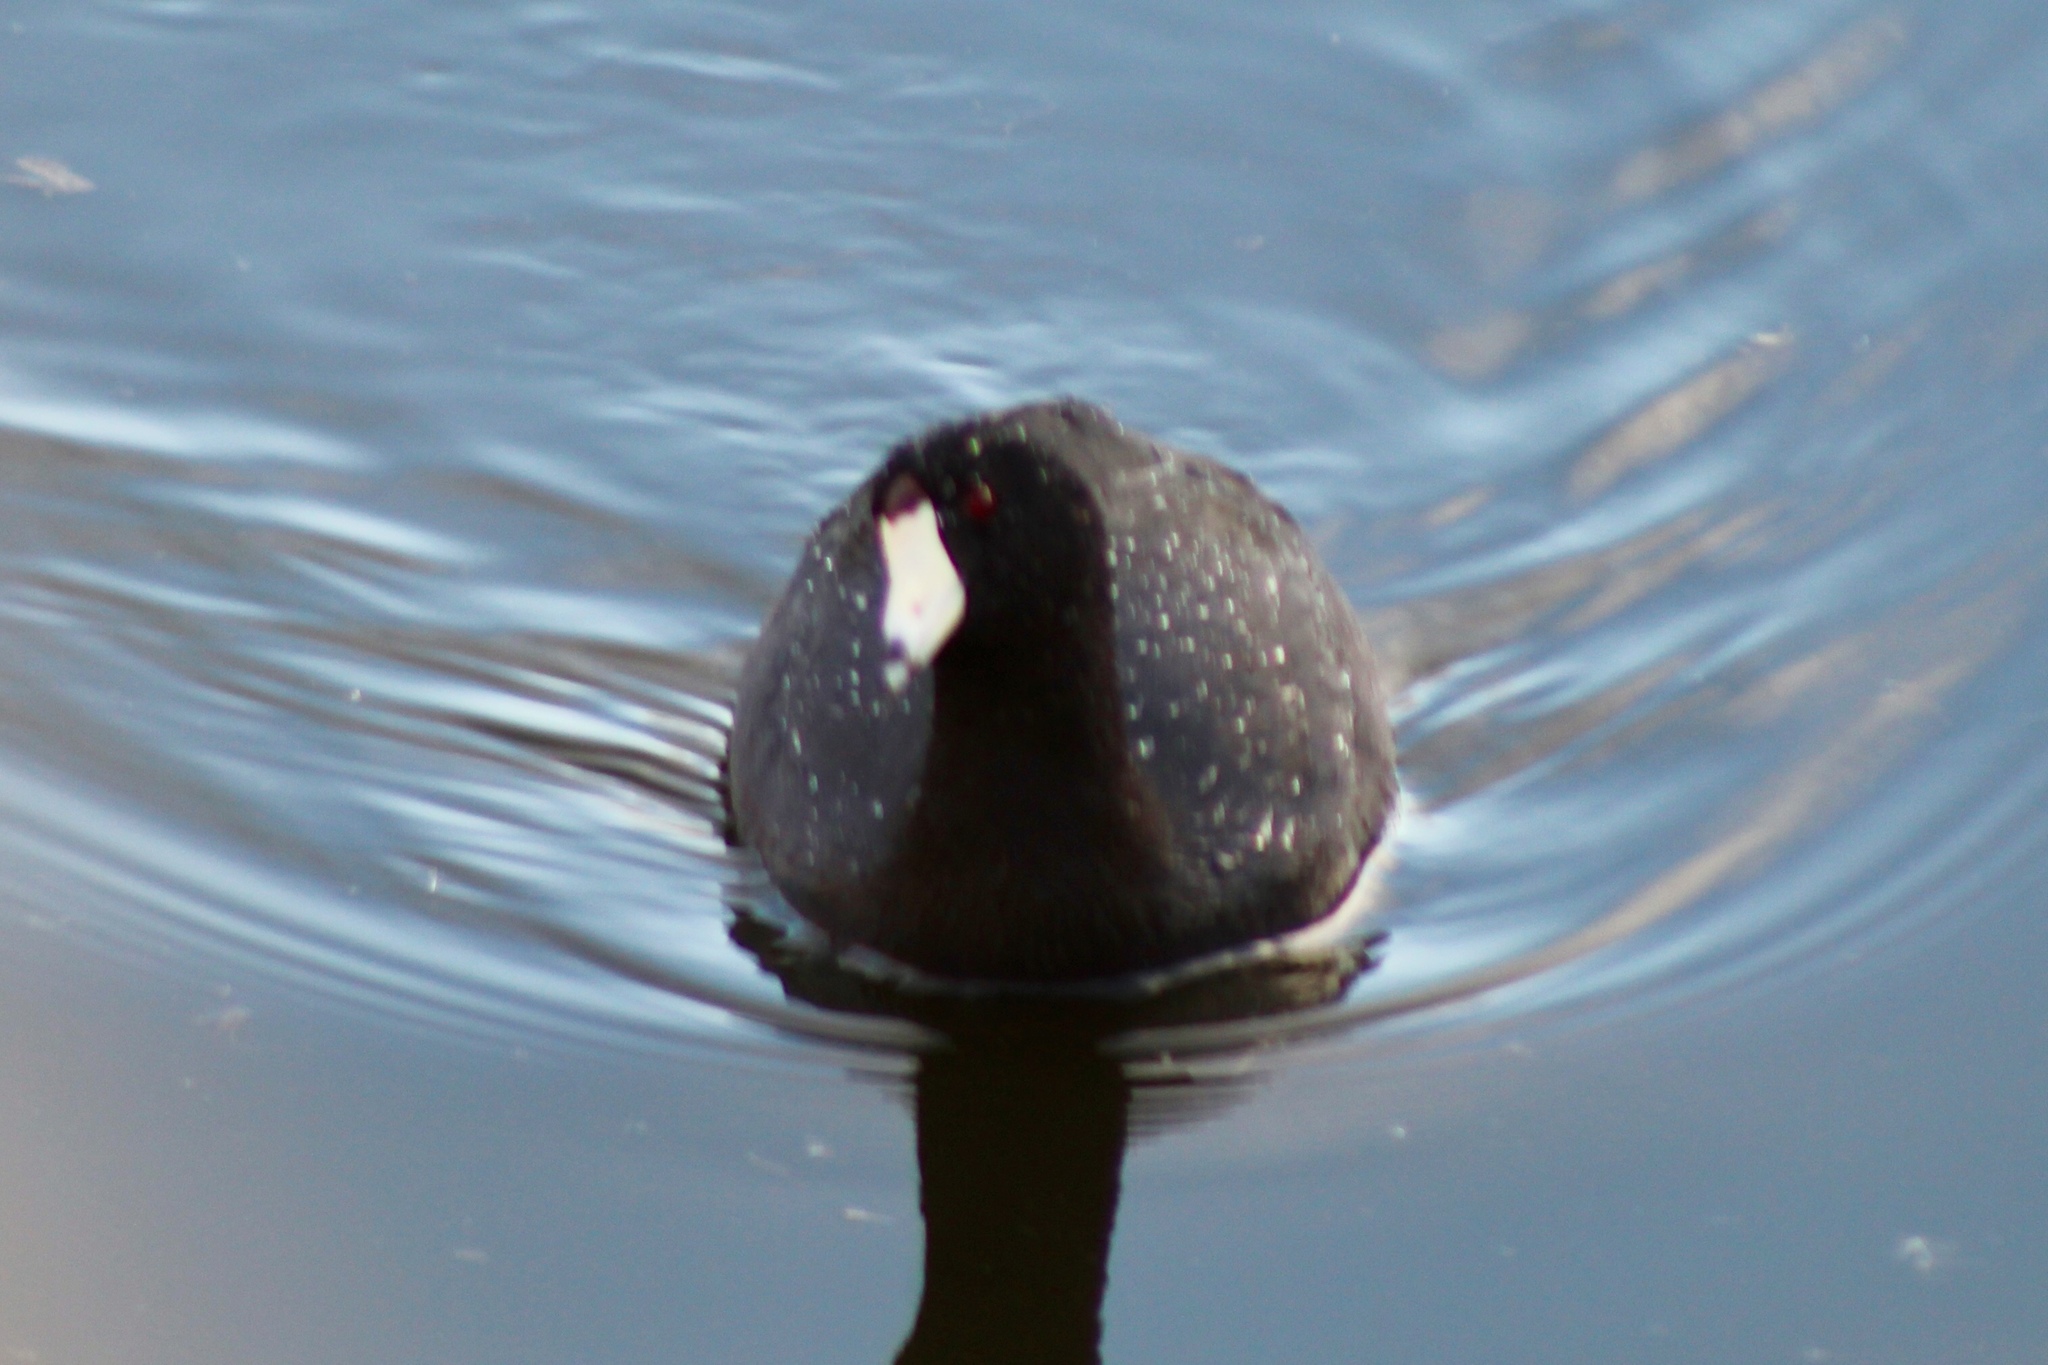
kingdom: Animalia
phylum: Chordata
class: Aves
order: Gruiformes
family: Rallidae
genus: Fulica
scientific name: Fulica americana
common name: American coot
